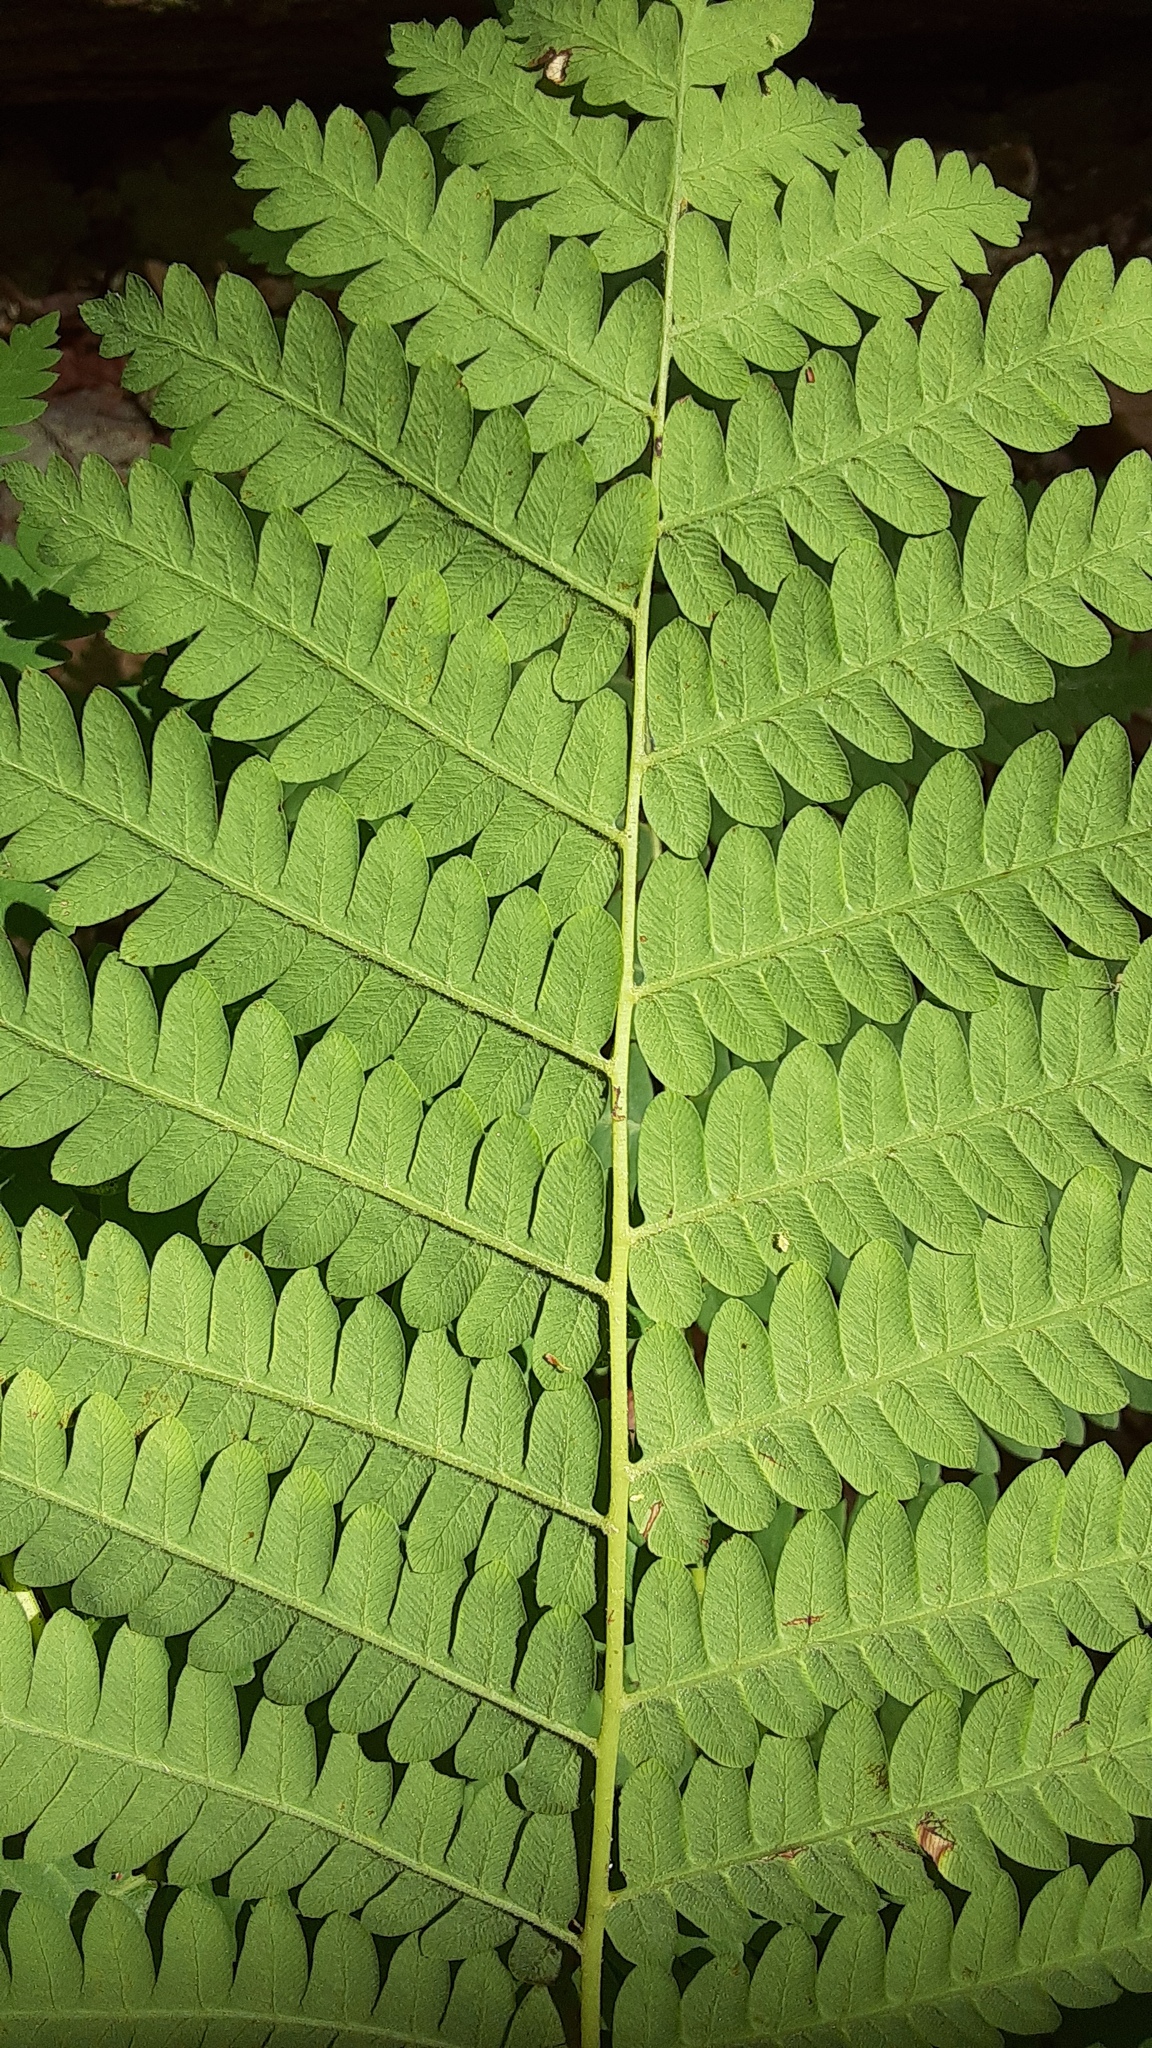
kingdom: Plantae
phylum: Tracheophyta
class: Polypodiopsida
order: Osmundales
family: Osmundaceae
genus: Claytosmunda
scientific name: Claytosmunda claytoniana
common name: Clayton's fern
